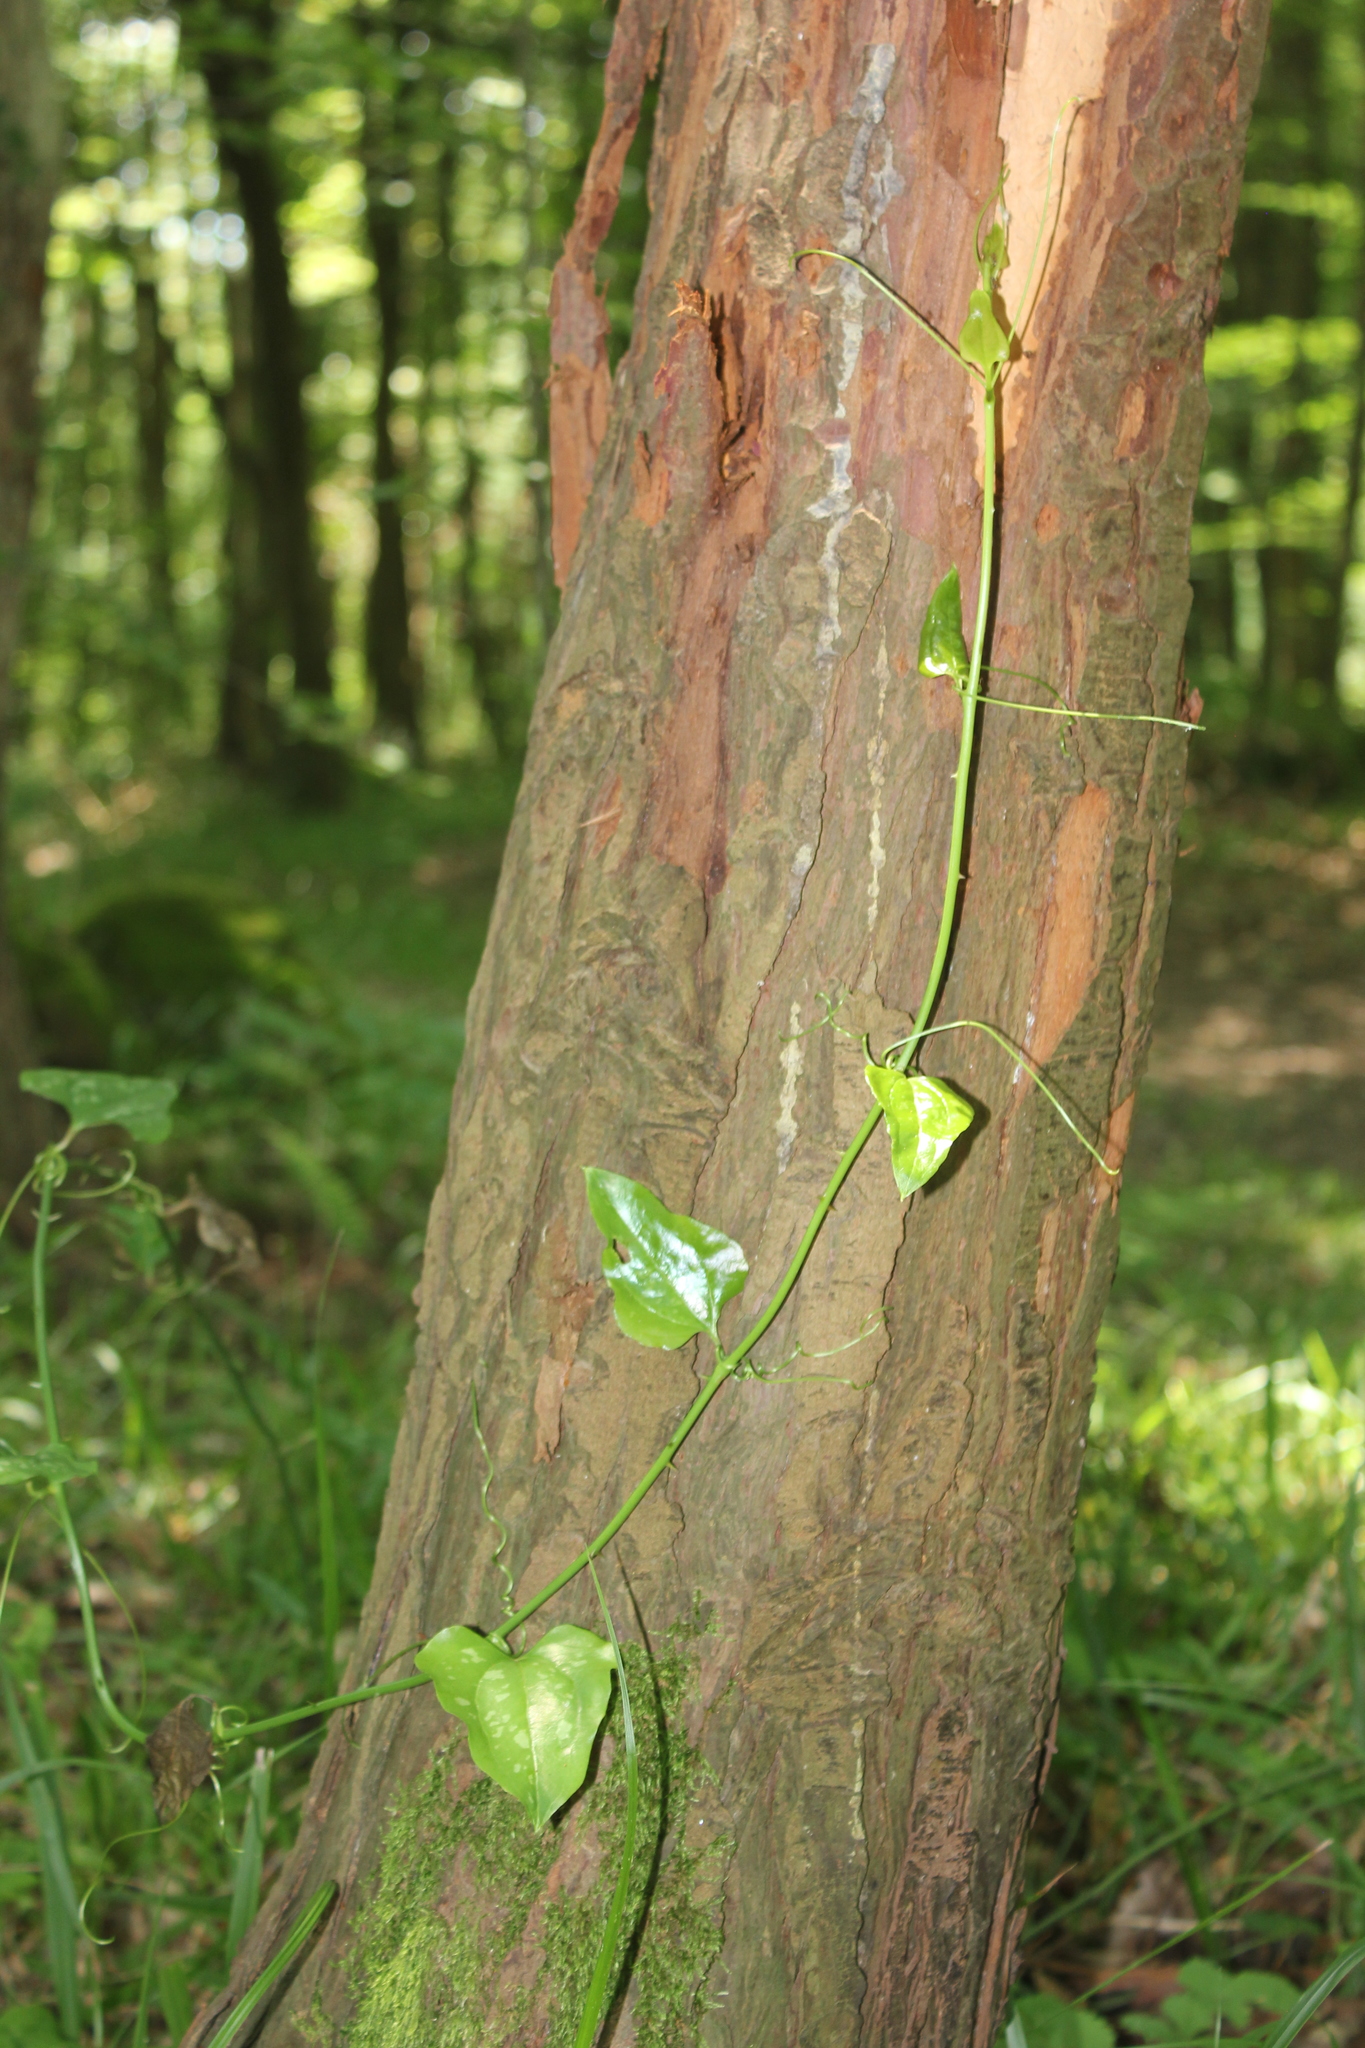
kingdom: Plantae
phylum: Tracheophyta
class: Liliopsida
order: Liliales
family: Smilacaceae
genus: Smilax
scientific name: Smilax excelsa
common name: Larger smilax
